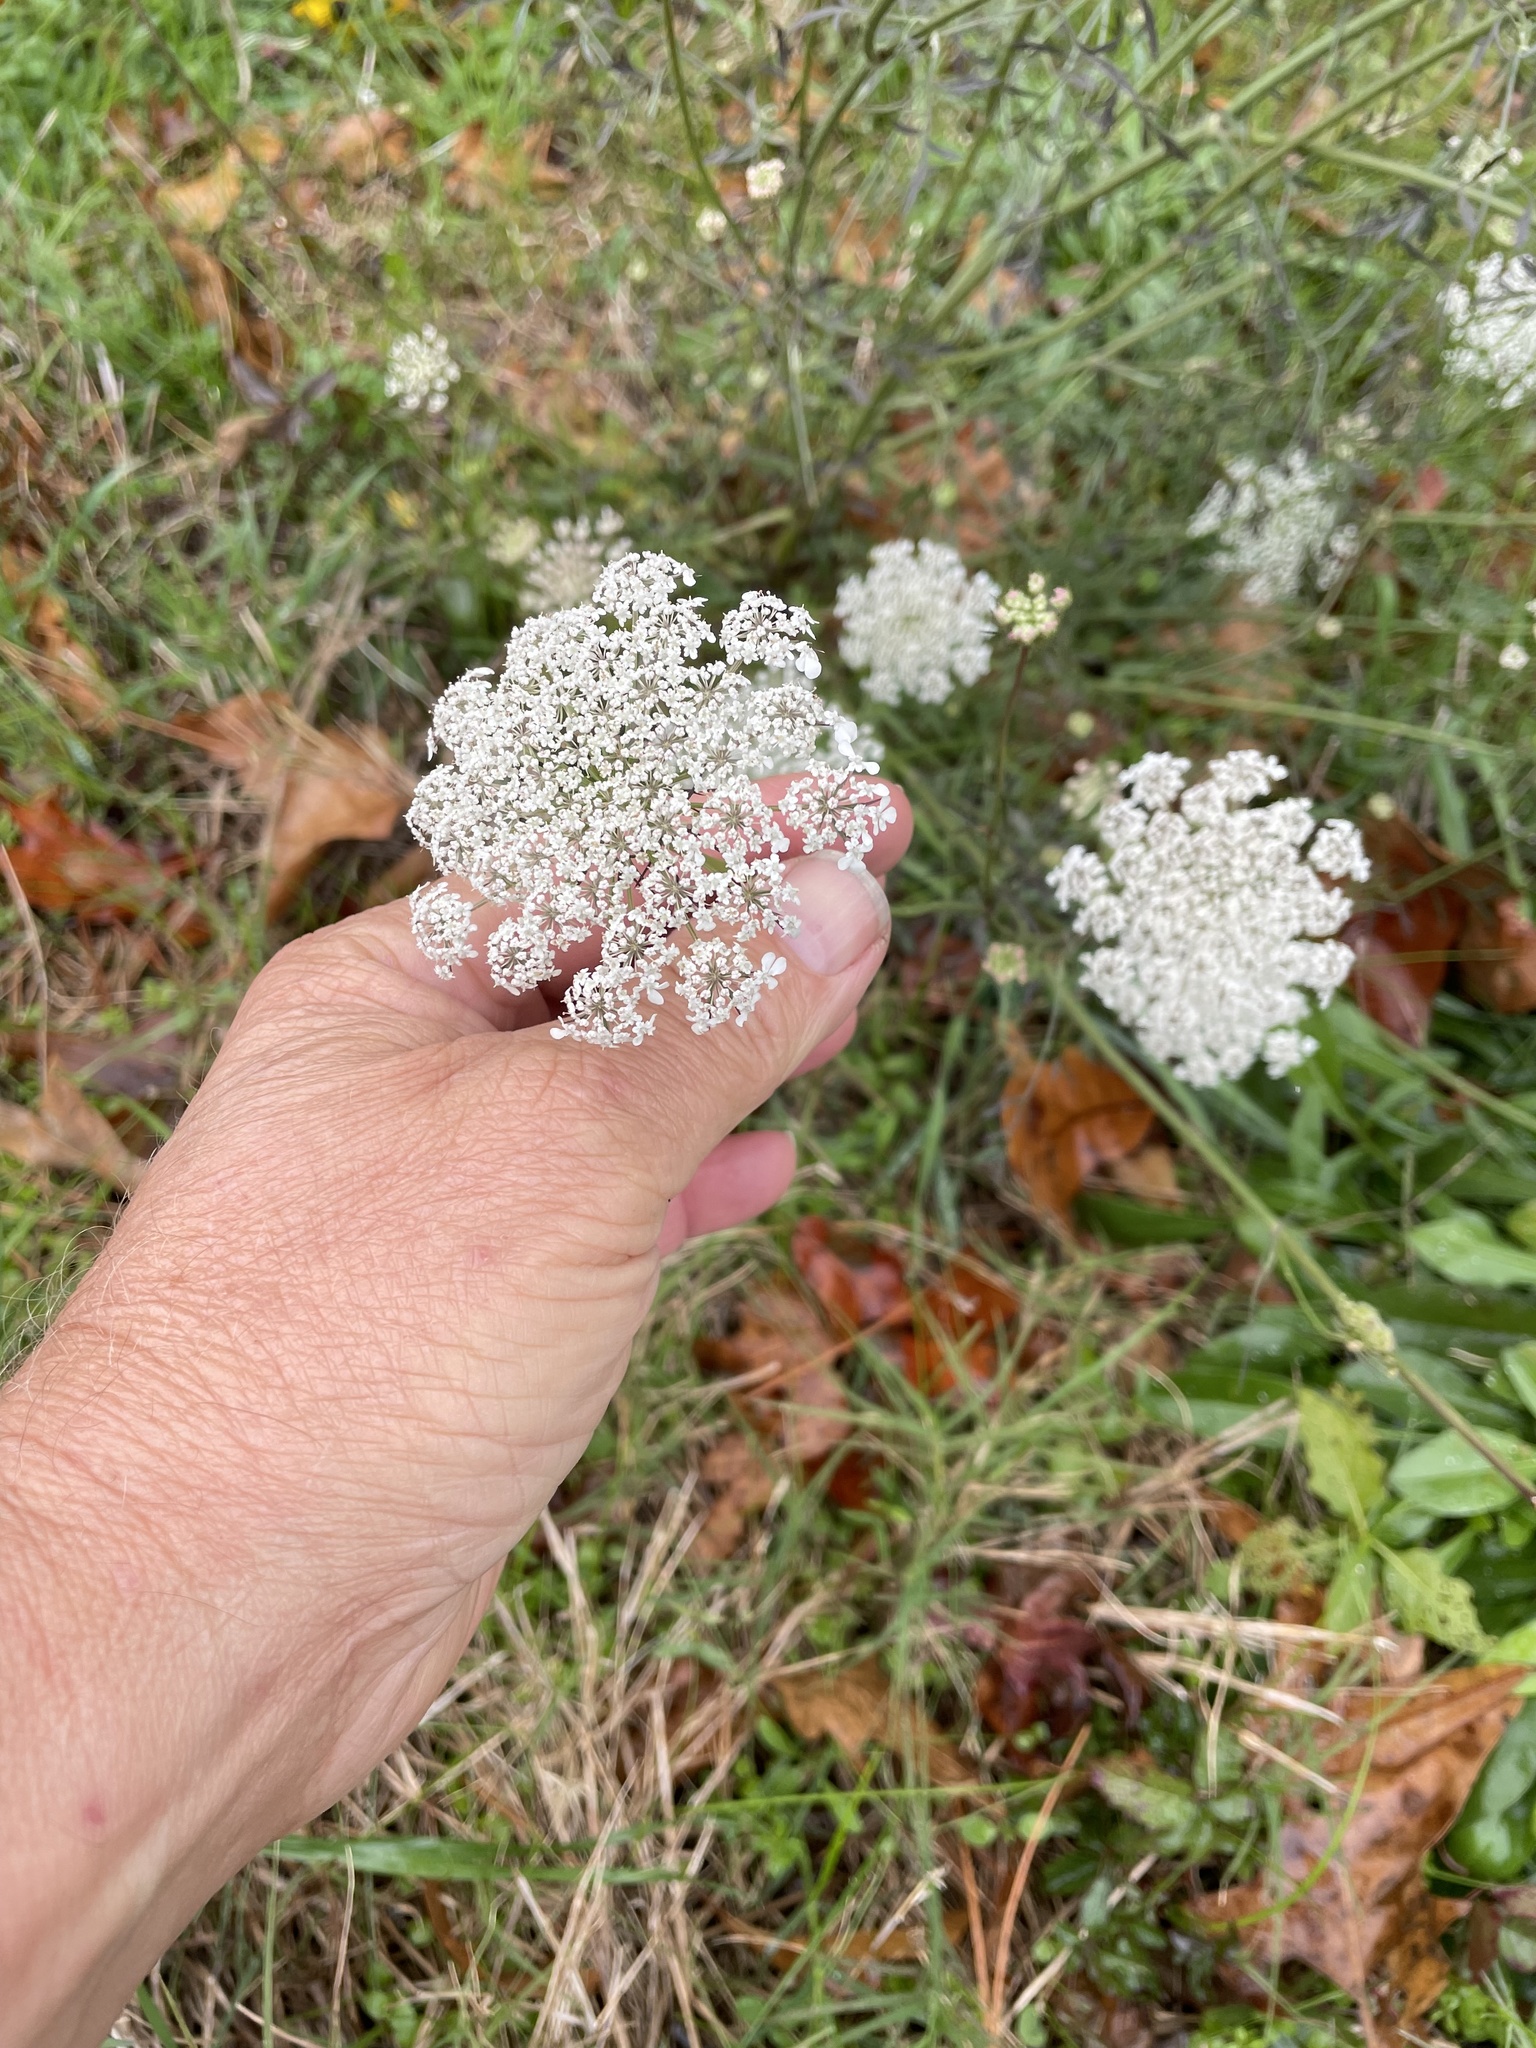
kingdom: Plantae
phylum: Tracheophyta
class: Magnoliopsida
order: Apiales
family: Apiaceae
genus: Daucus
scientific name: Daucus carota
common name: Wild carrot
